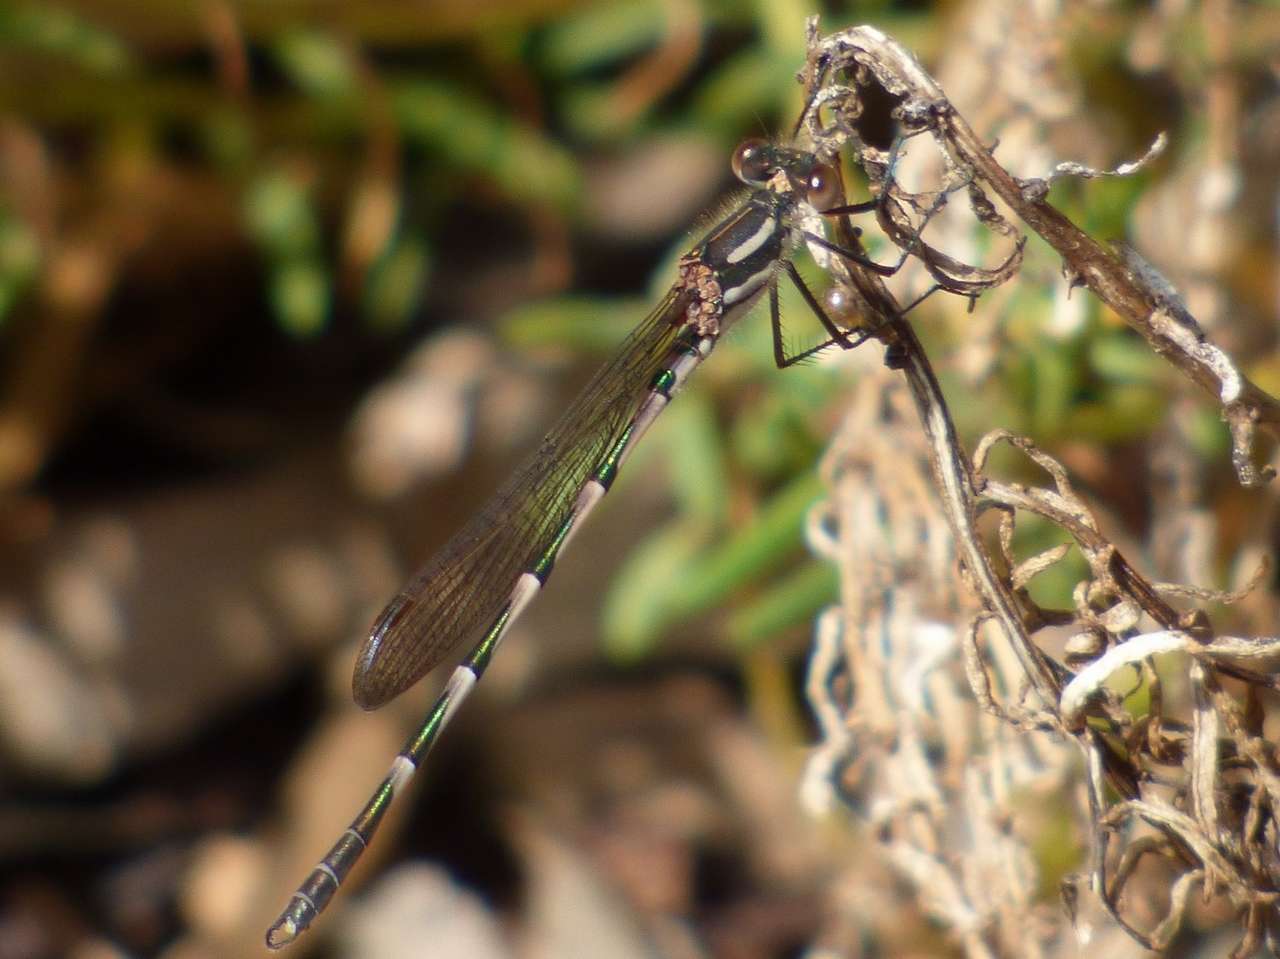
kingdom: Animalia
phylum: Arthropoda
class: Insecta
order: Odonata
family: Lestidae
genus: Austrolestes
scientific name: Austrolestes annulosus
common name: Blue ringtail
